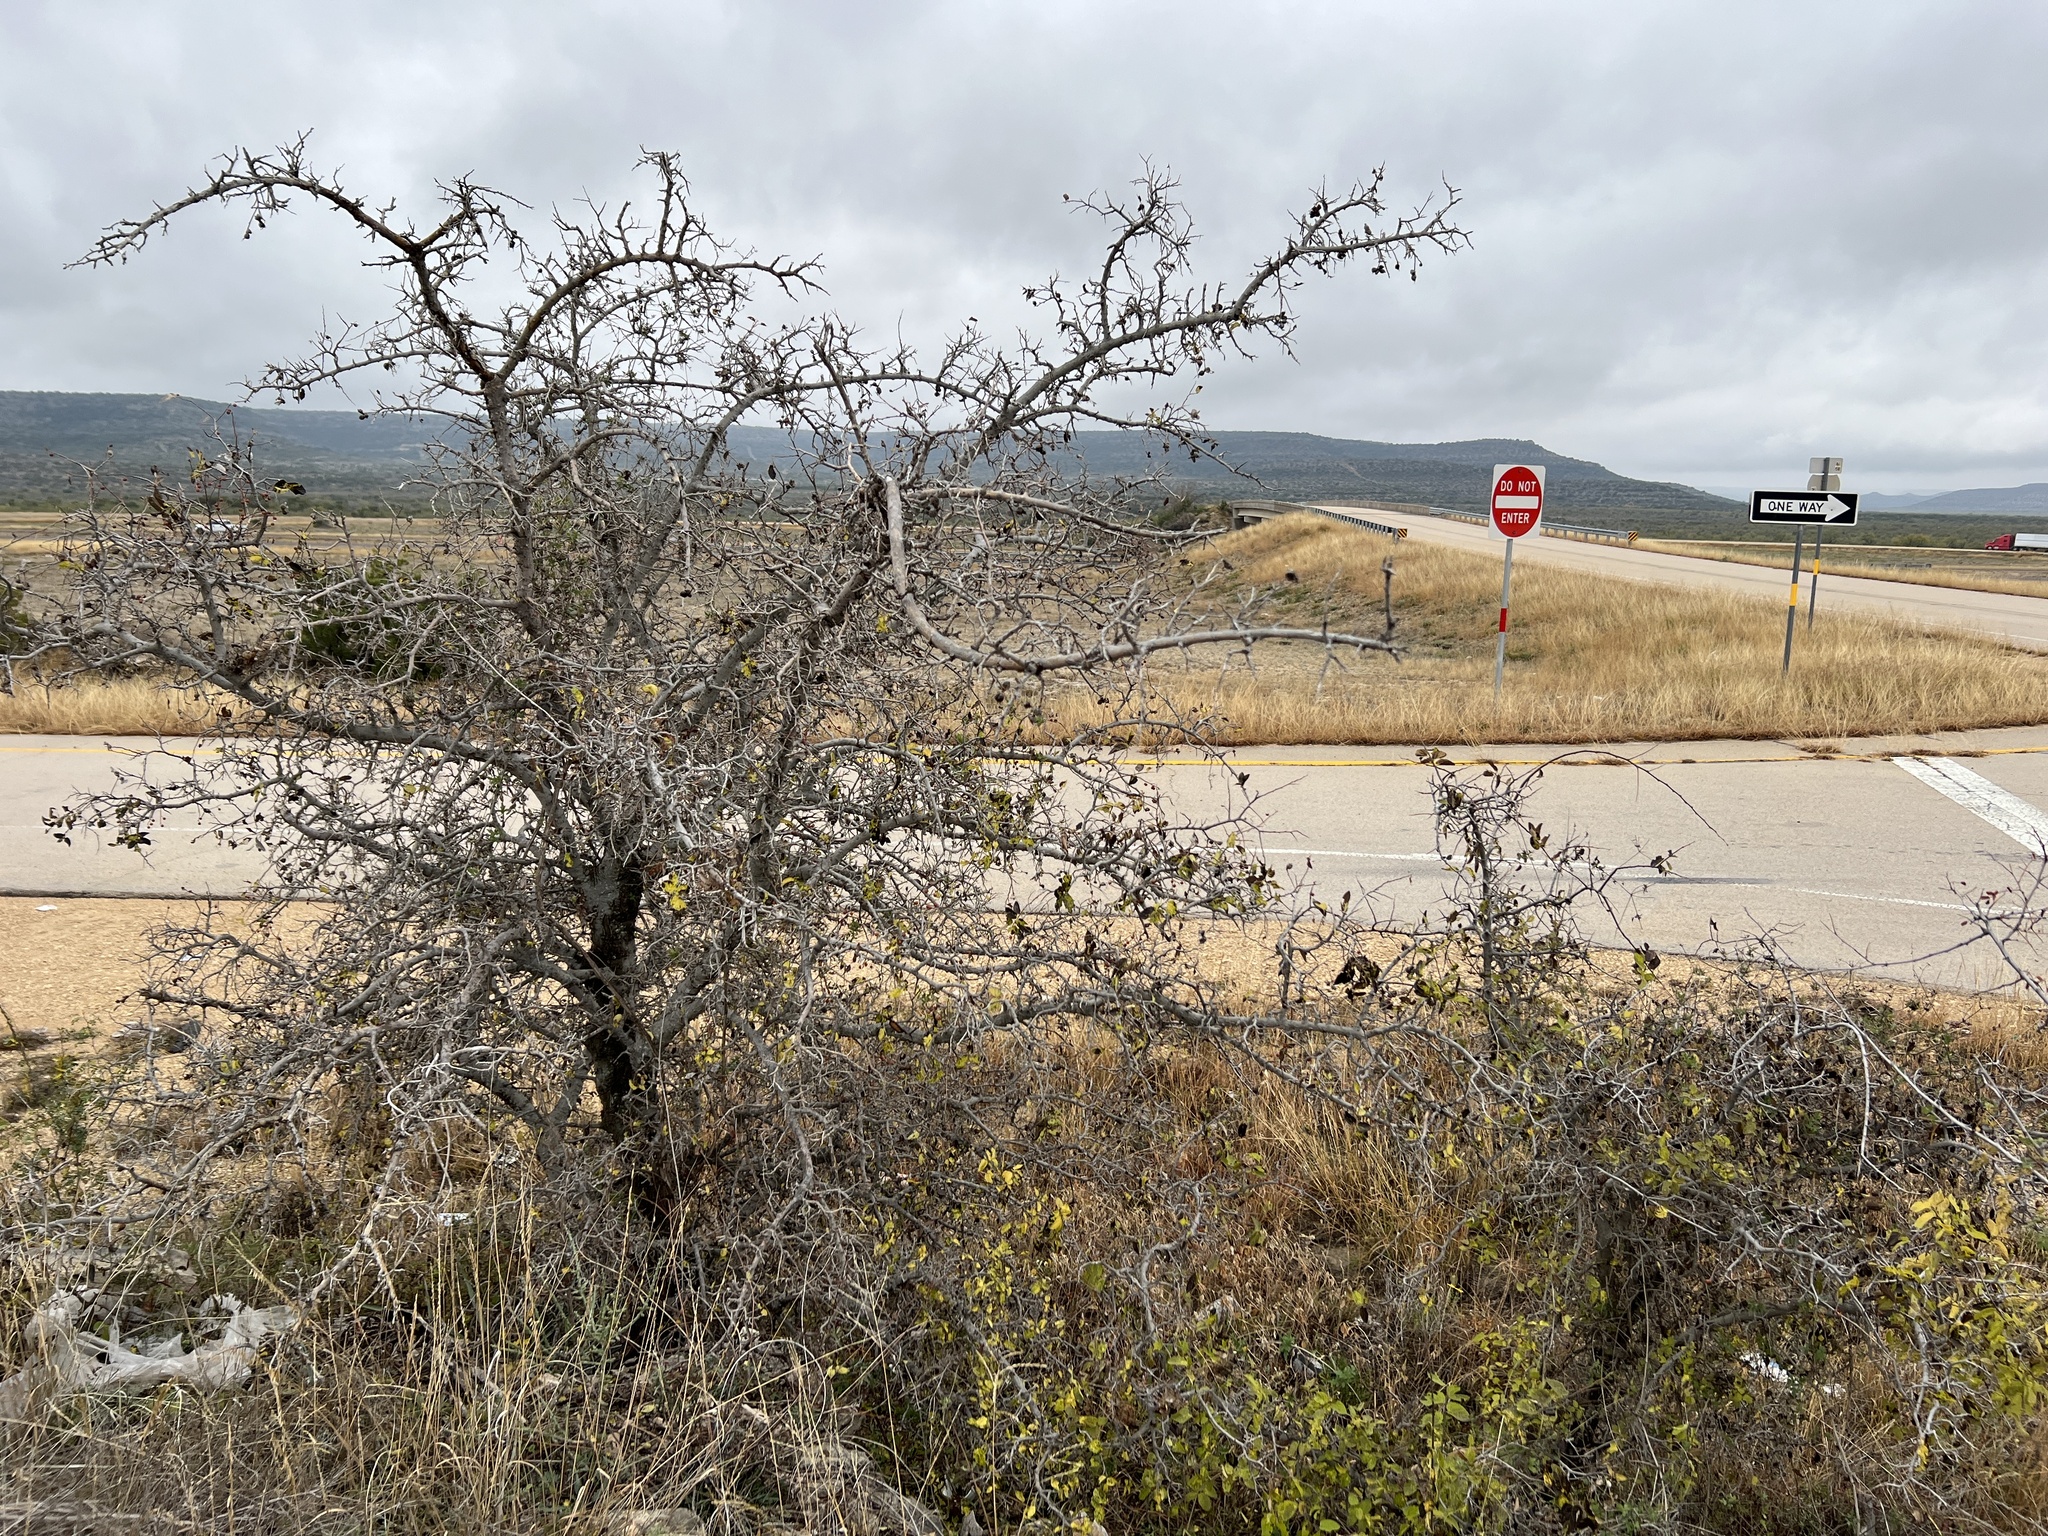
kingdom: Plantae
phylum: Tracheophyta
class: Magnoliopsida
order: Rosales
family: Cannabaceae
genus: Celtis
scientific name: Celtis reticulata
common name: Netleaf hackberry
